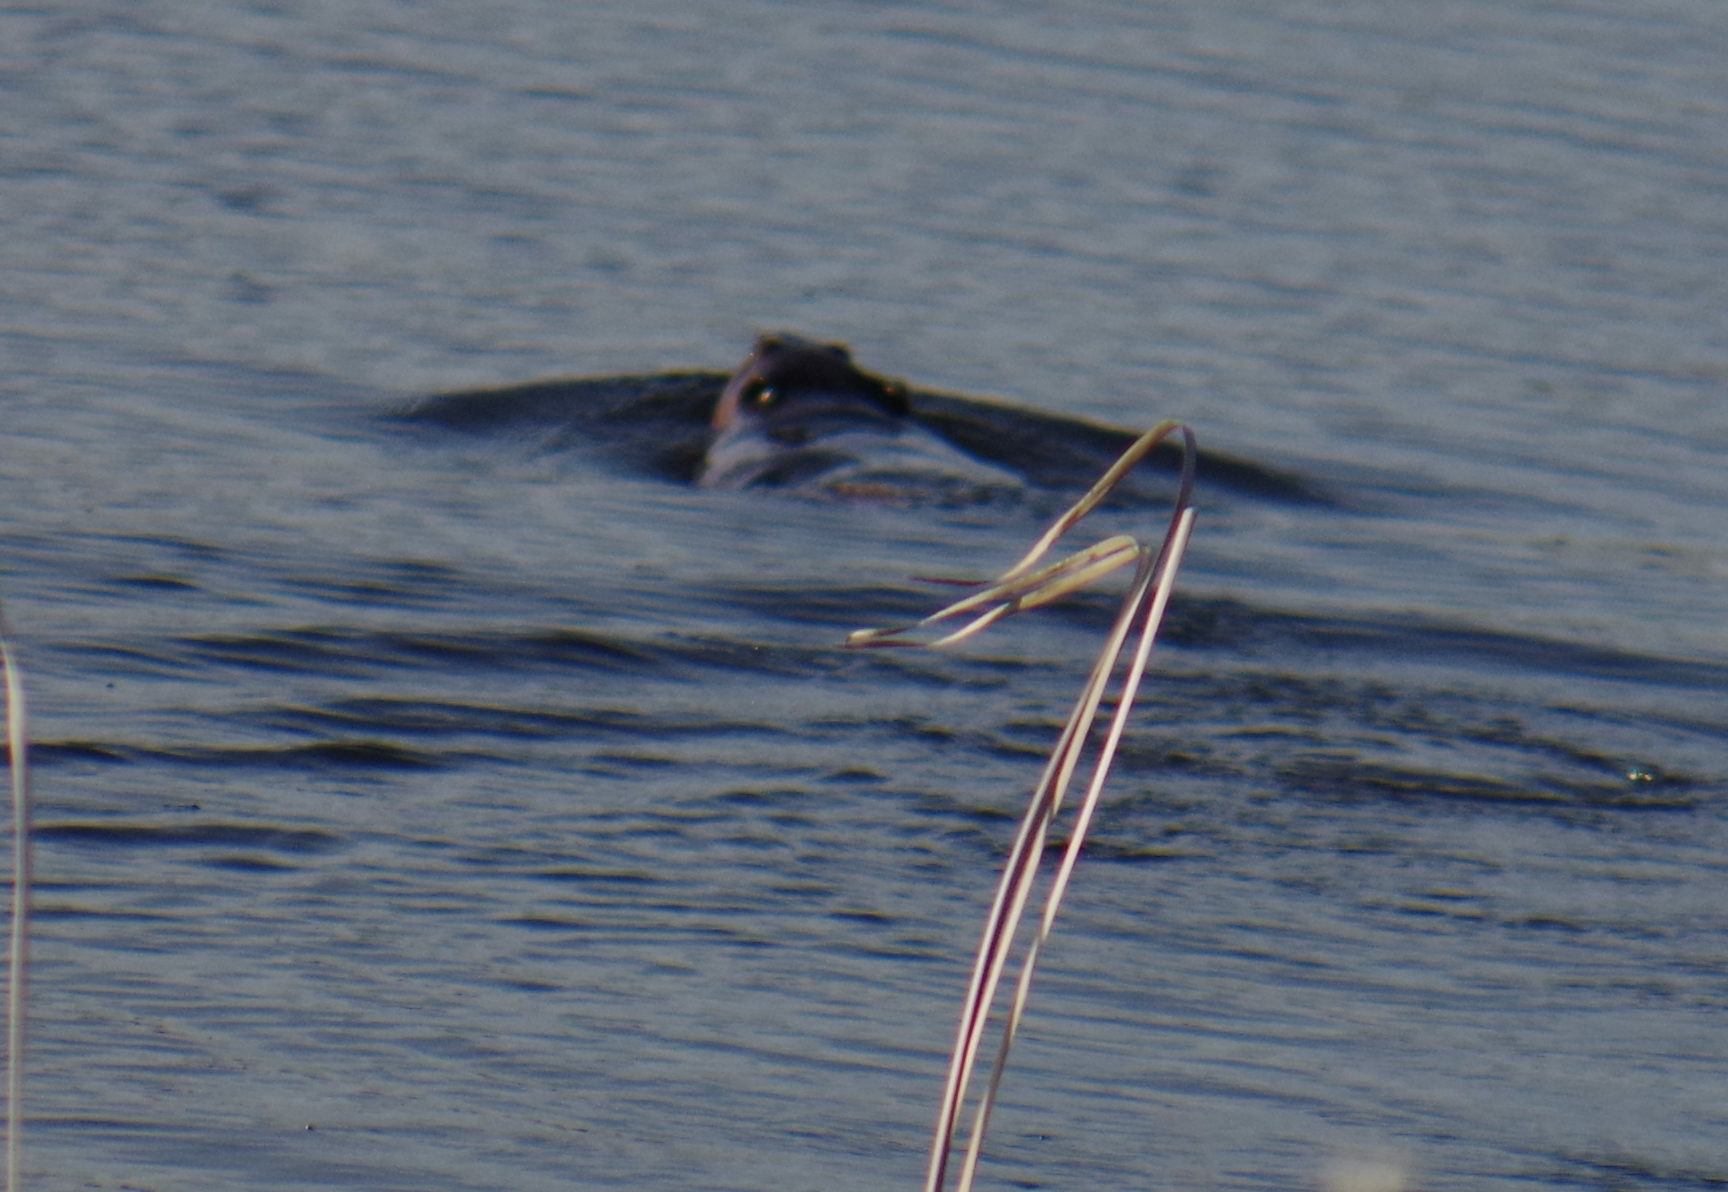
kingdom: Animalia
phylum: Chordata
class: Mammalia
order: Rodentia
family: Castoridae
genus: Castor
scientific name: Castor canadensis
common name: American beaver
